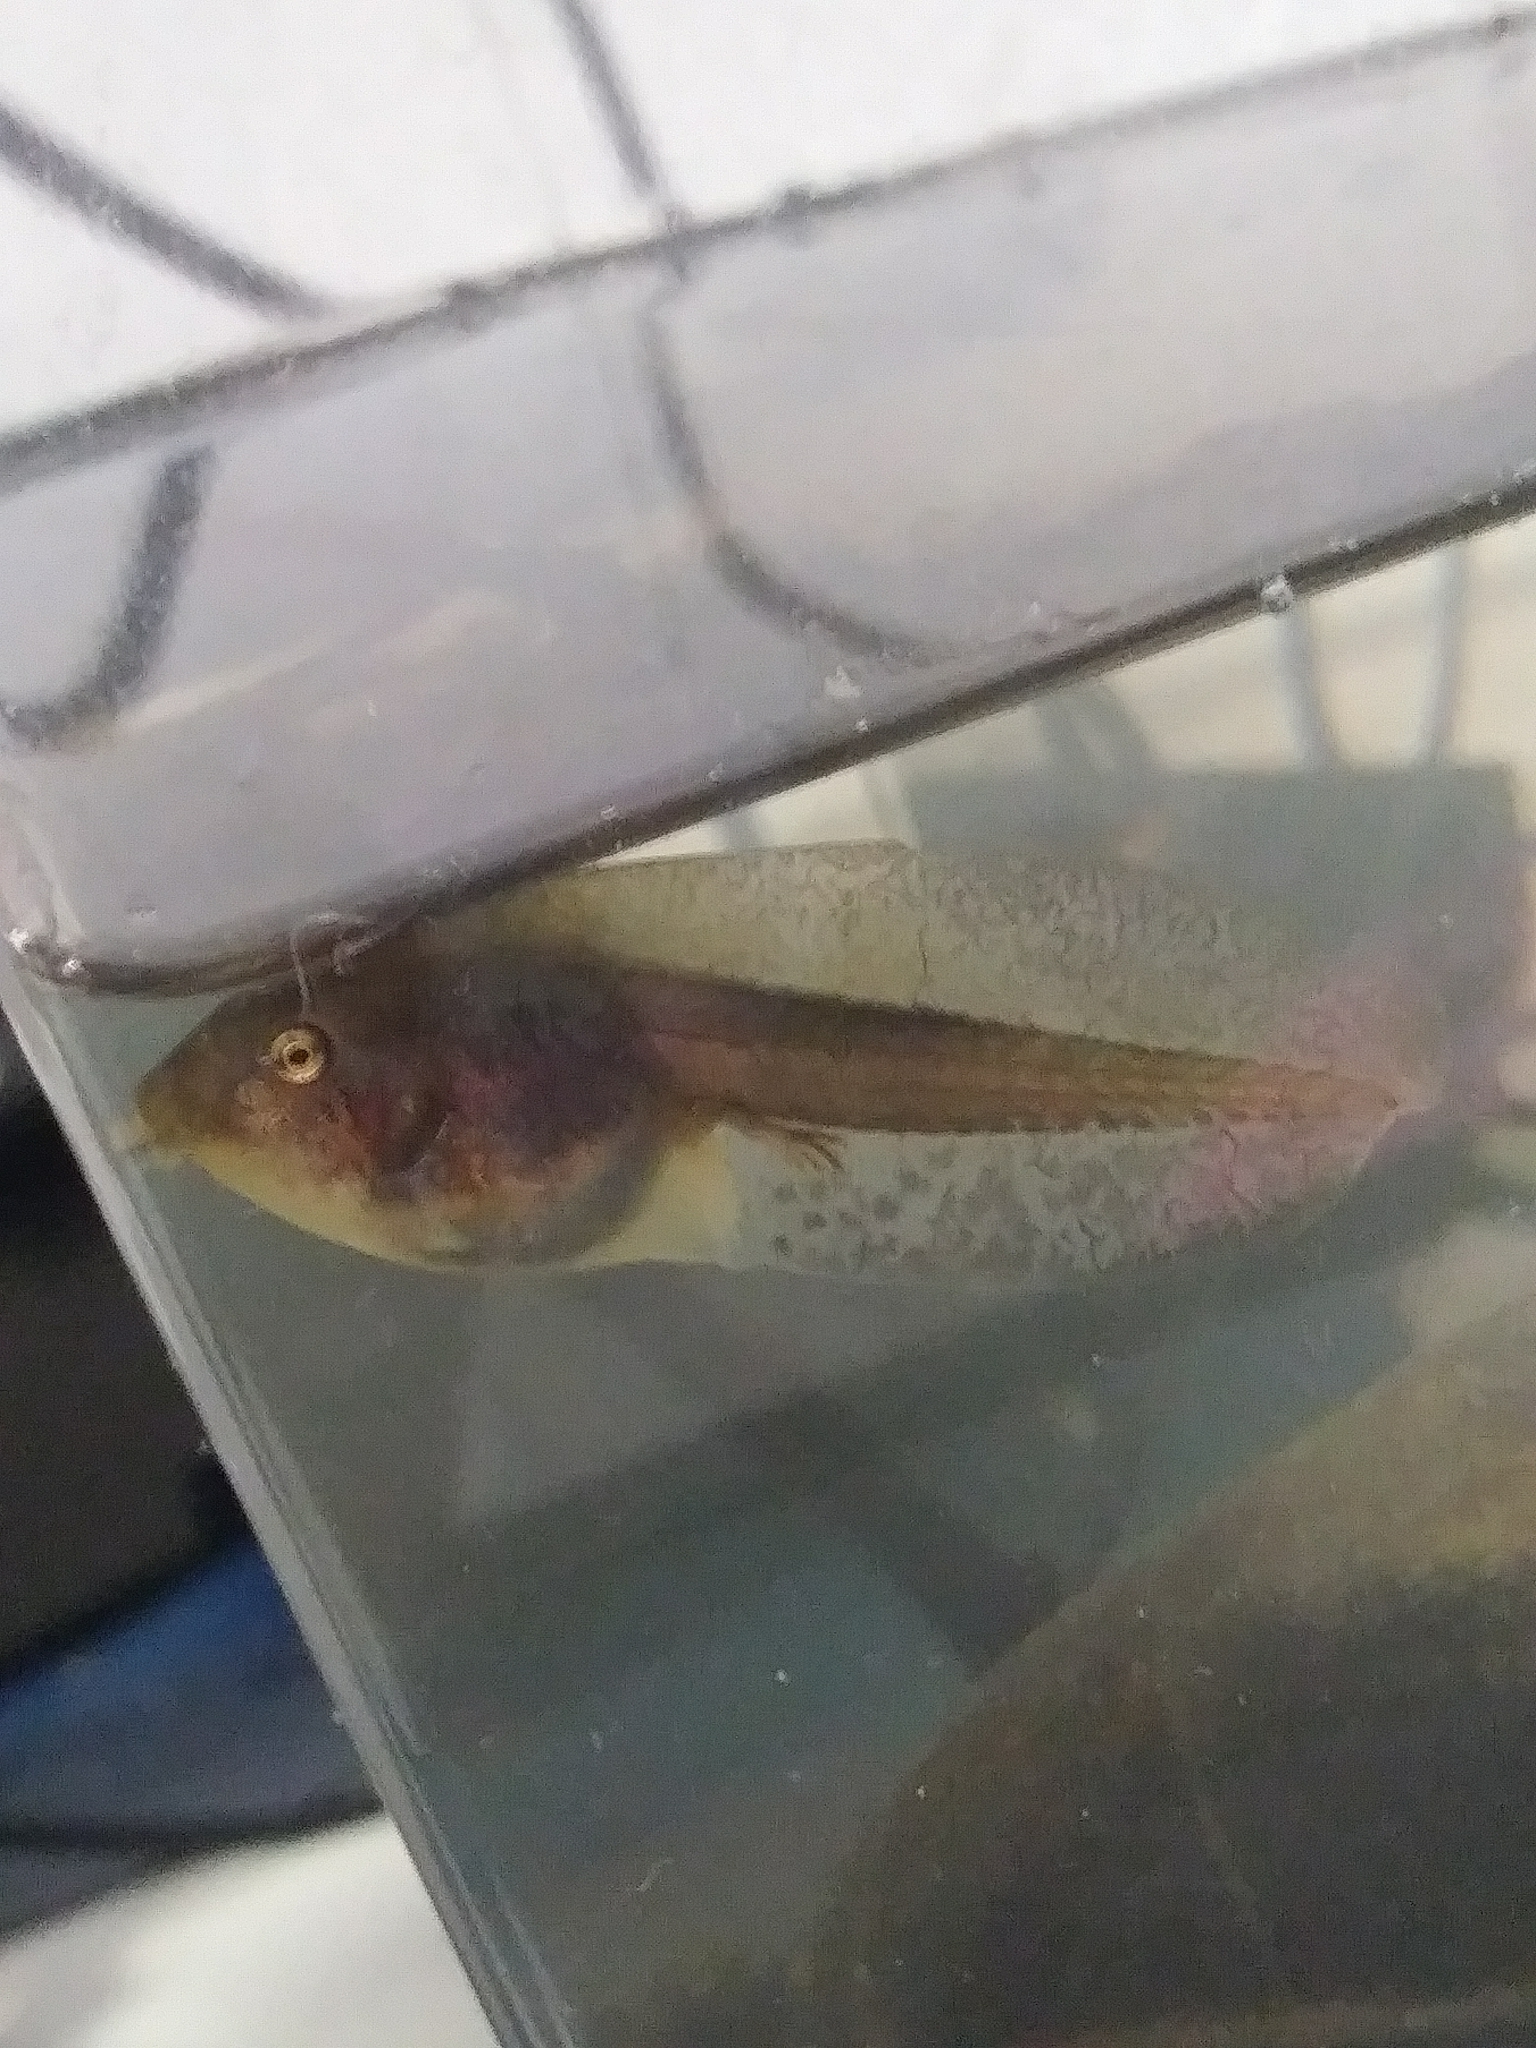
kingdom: Animalia
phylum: Chordata
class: Amphibia
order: Anura
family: Hylidae
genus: Pseudacris
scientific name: Pseudacris regilla
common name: Pacific chorus frog
